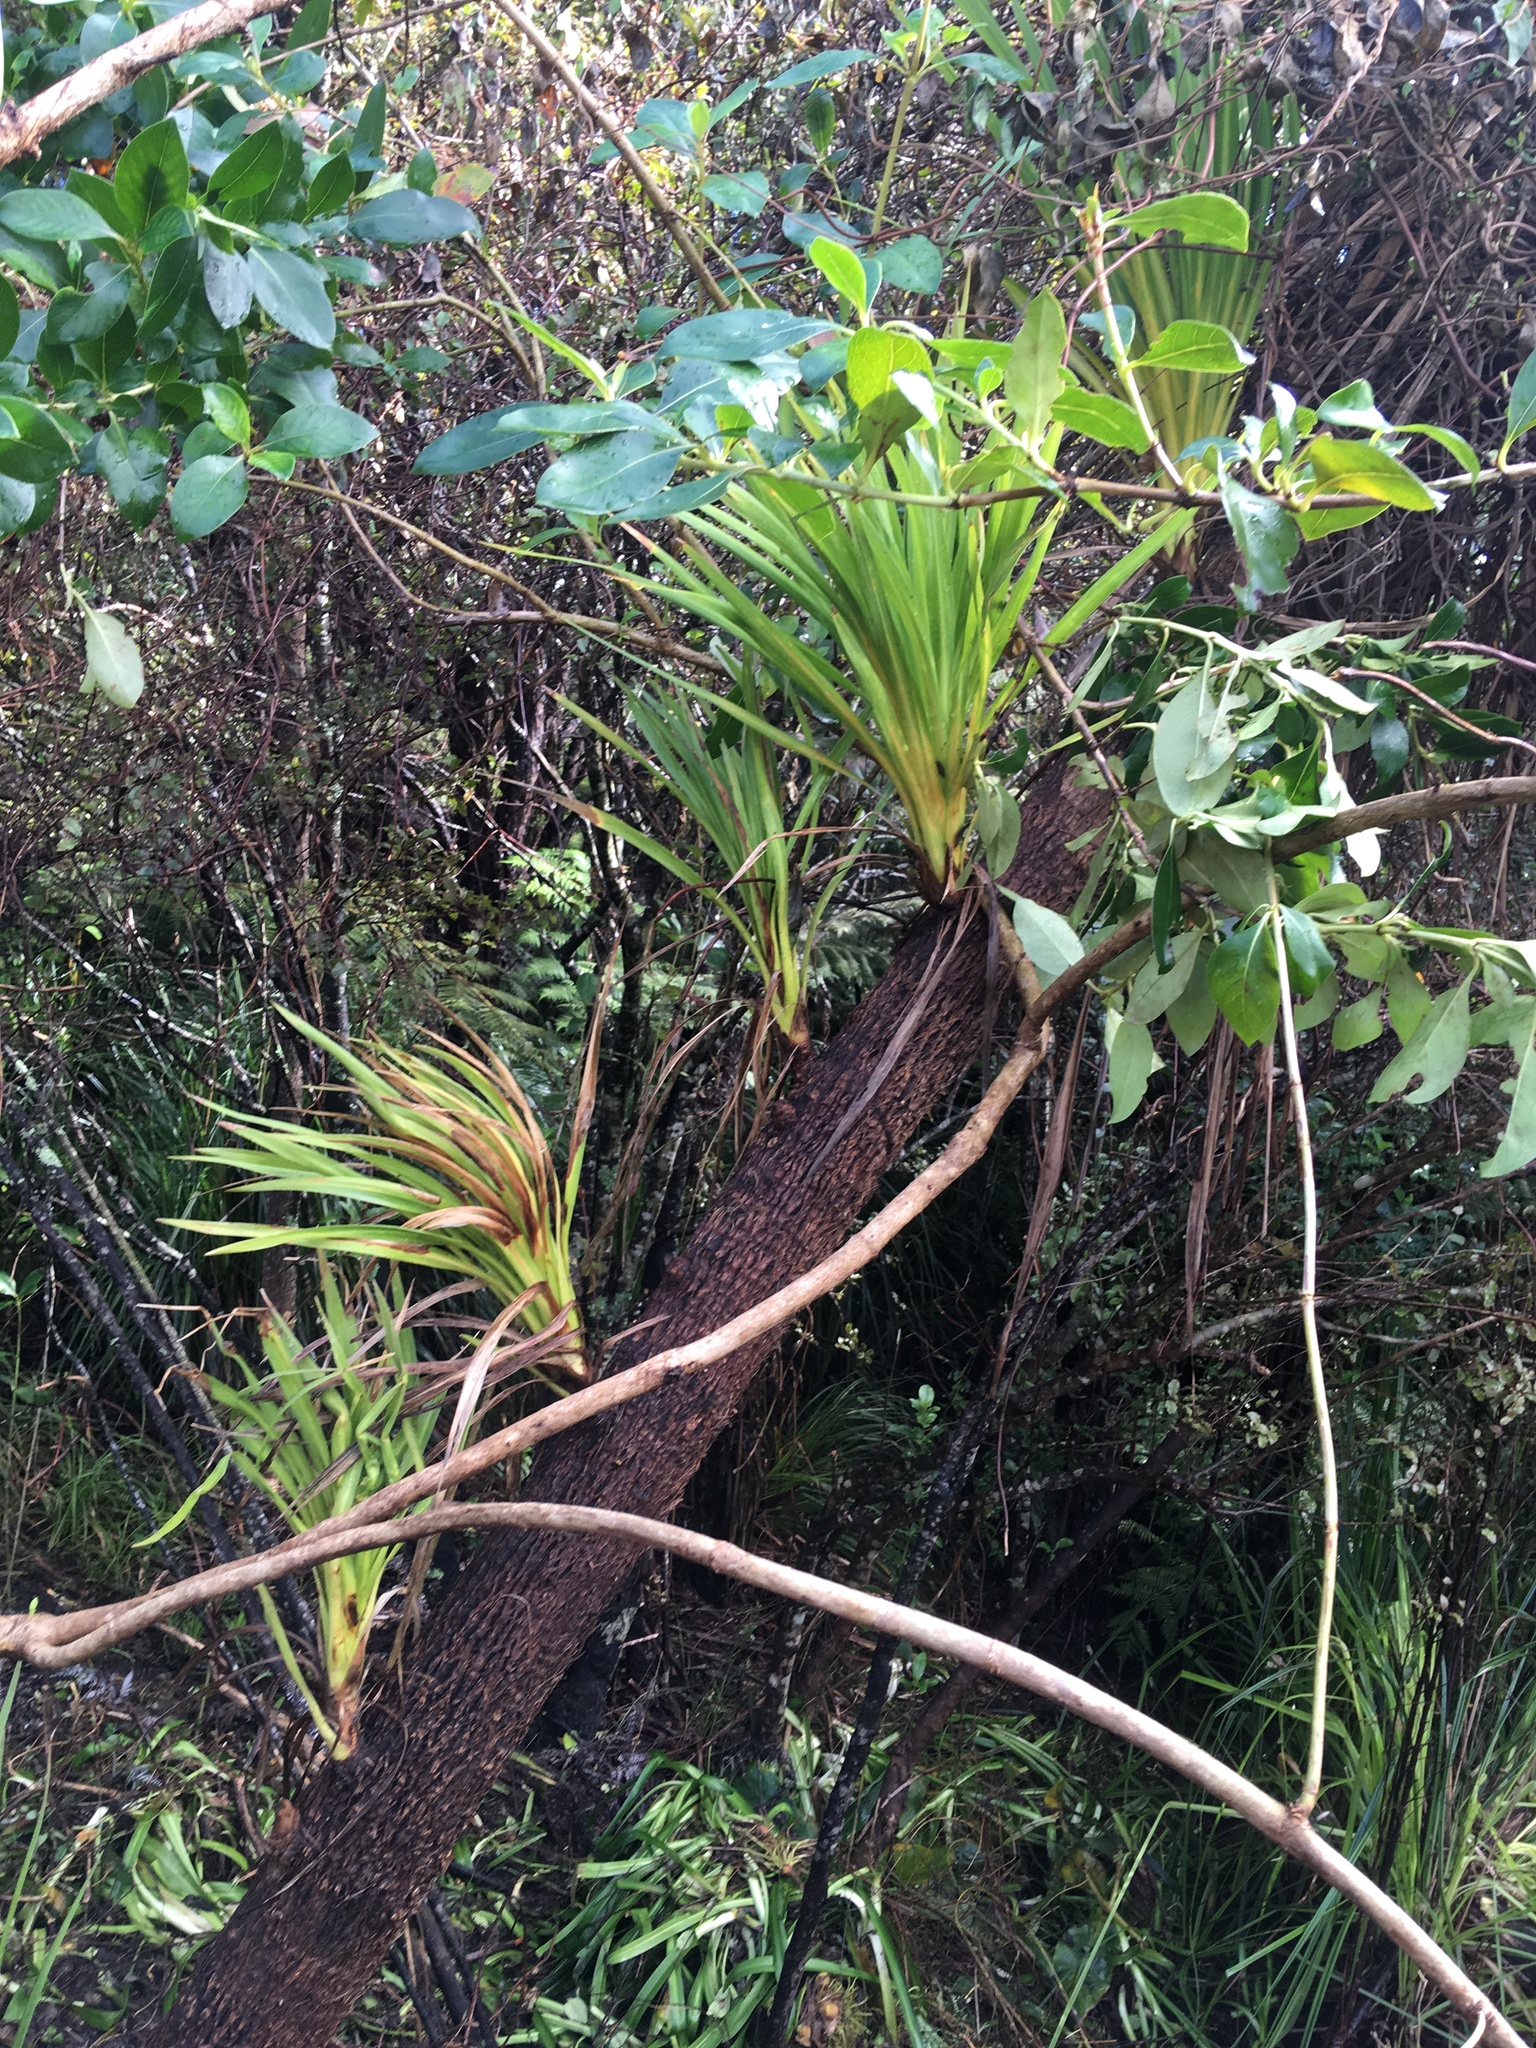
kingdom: Plantae
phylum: Tracheophyta
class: Liliopsida
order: Asparagales
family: Asparagaceae
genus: Cordyline
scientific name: Cordyline australis
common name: Cabbage-palm
